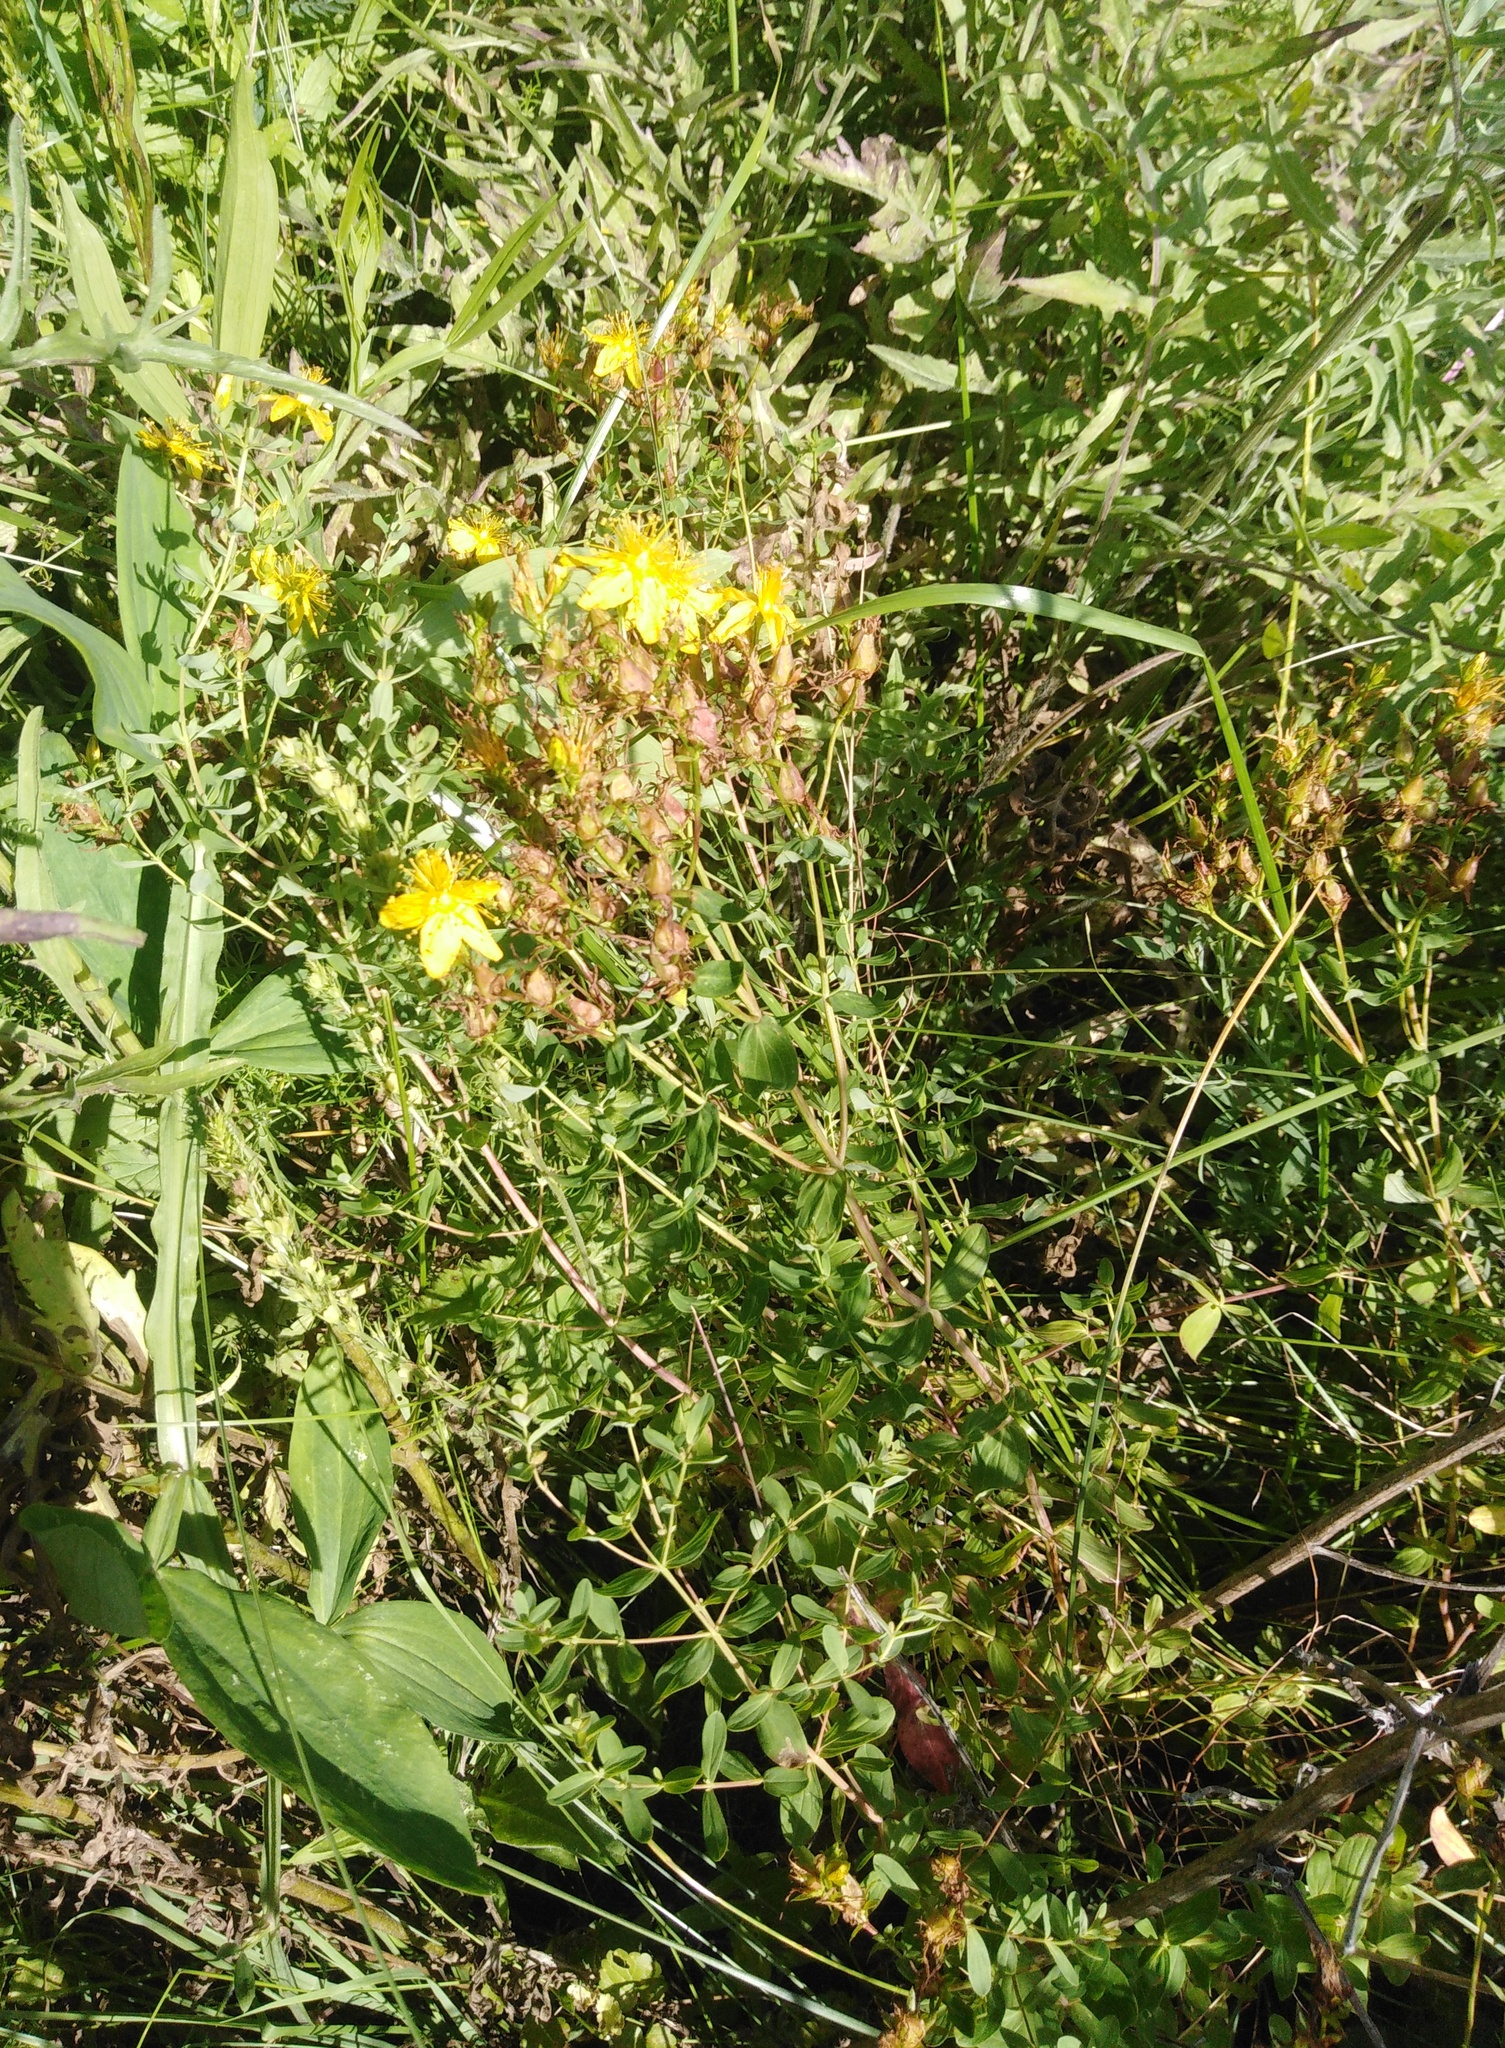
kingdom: Plantae
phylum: Tracheophyta
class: Magnoliopsida
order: Malpighiales
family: Hypericaceae
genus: Hypericum
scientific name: Hypericum perforatum
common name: Common st. johnswort
